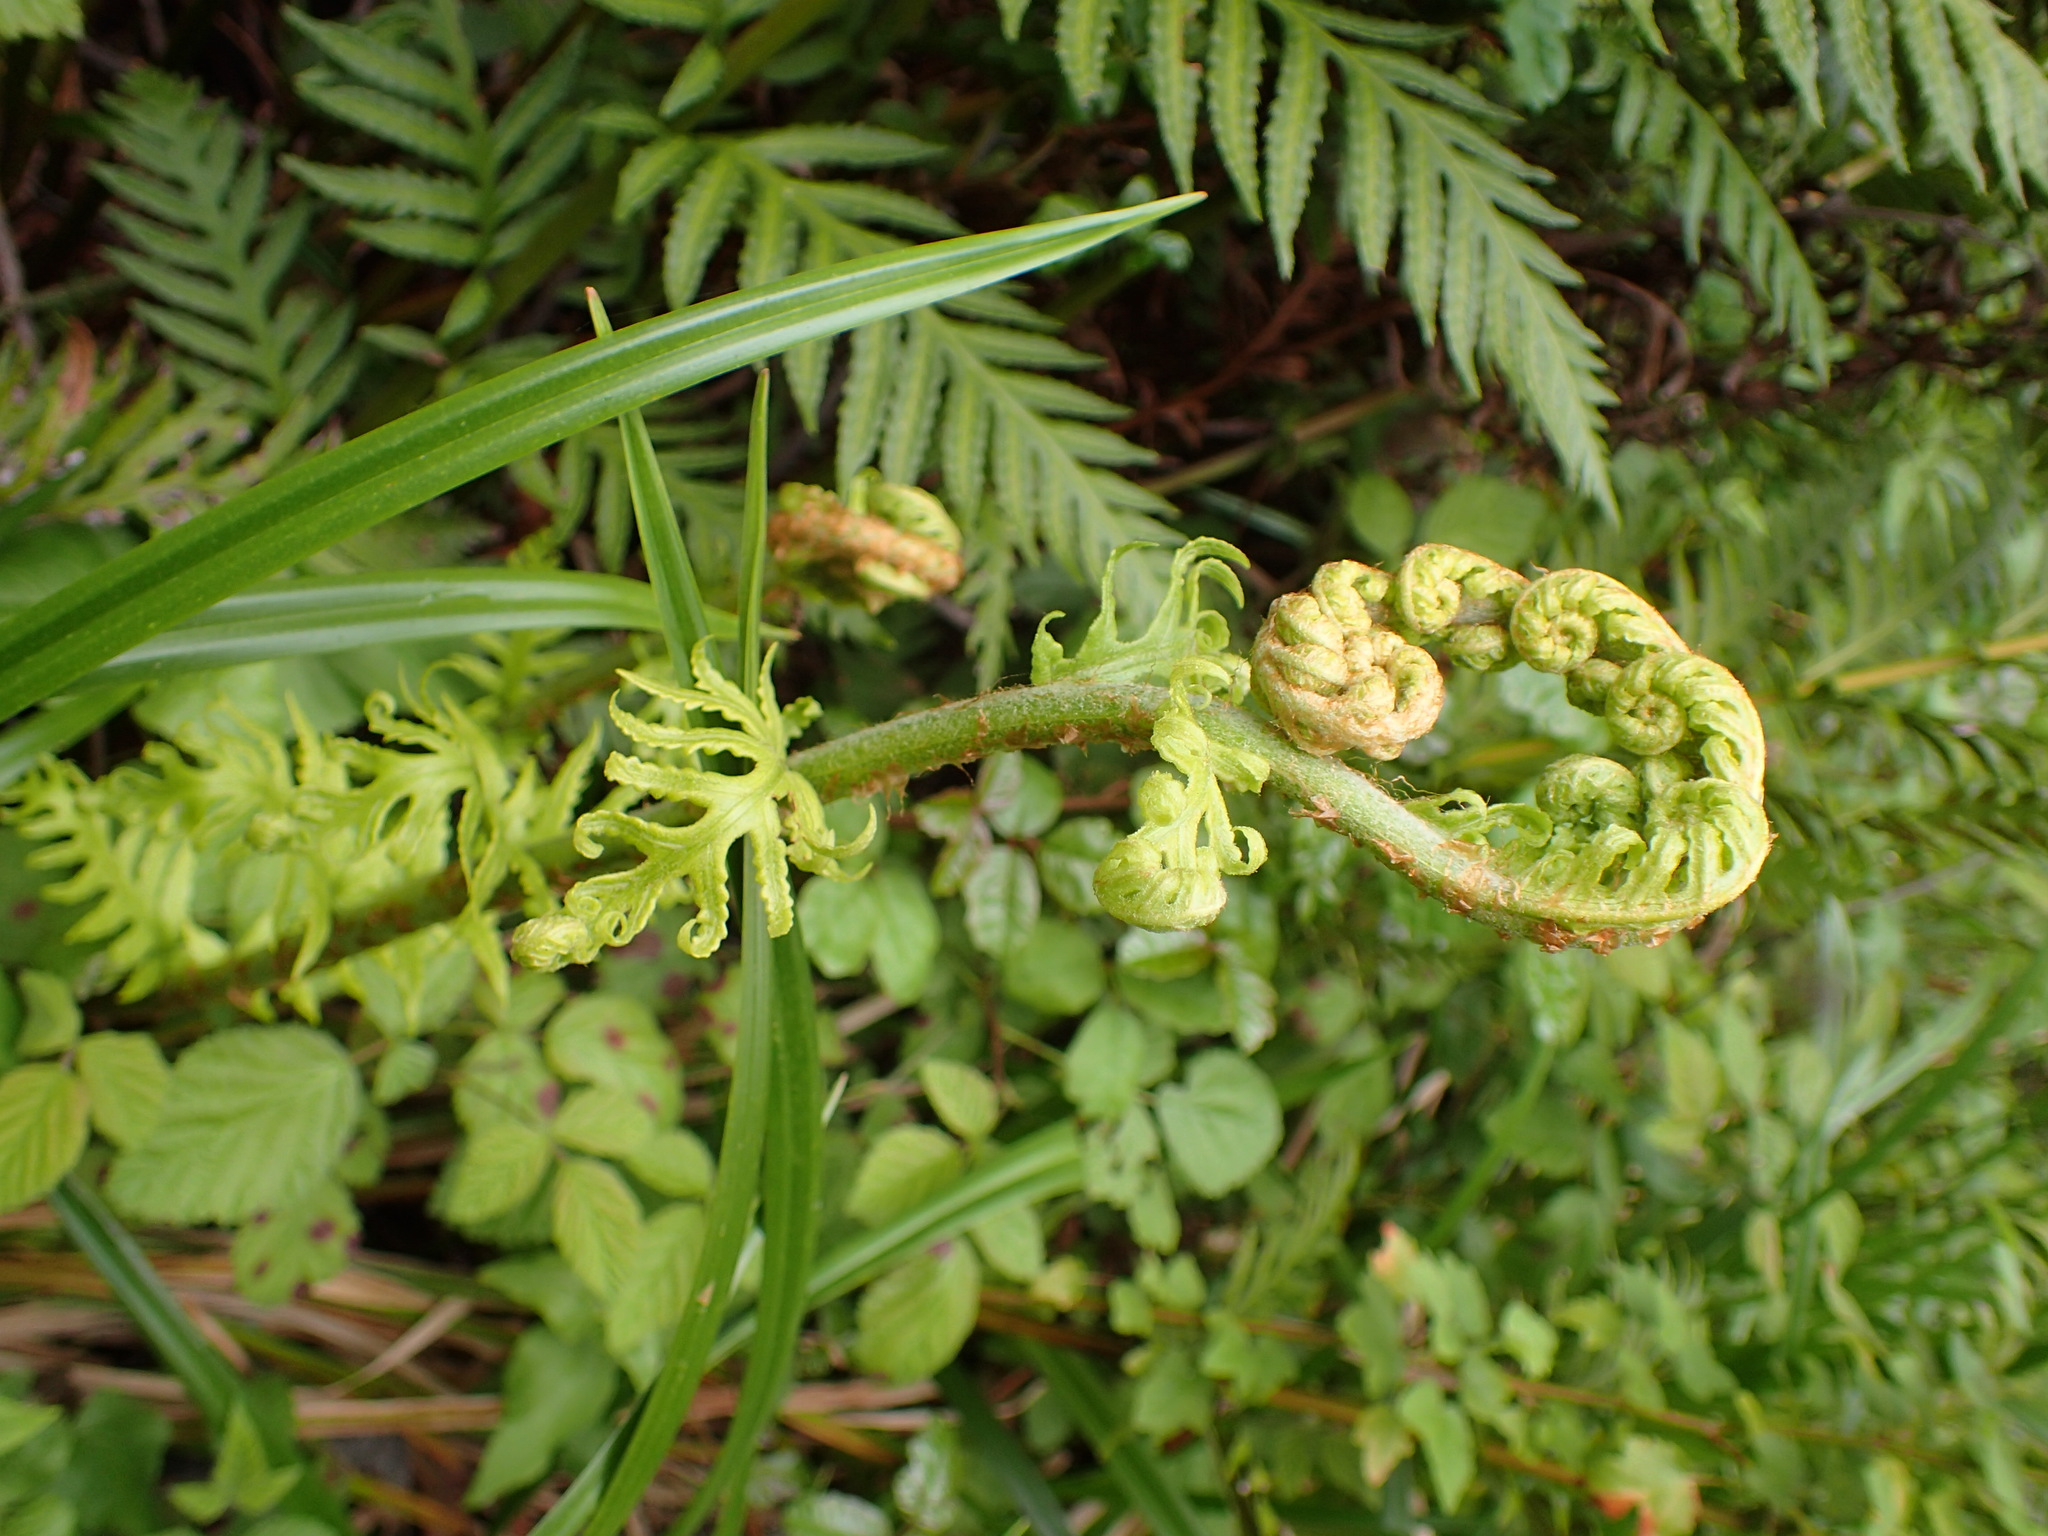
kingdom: Plantae
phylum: Tracheophyta
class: Polypodiopsida
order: Polypodiales
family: Blechnaceae
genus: Woodwardia
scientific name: Woodwardia fimbriata
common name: Giant chain fern
